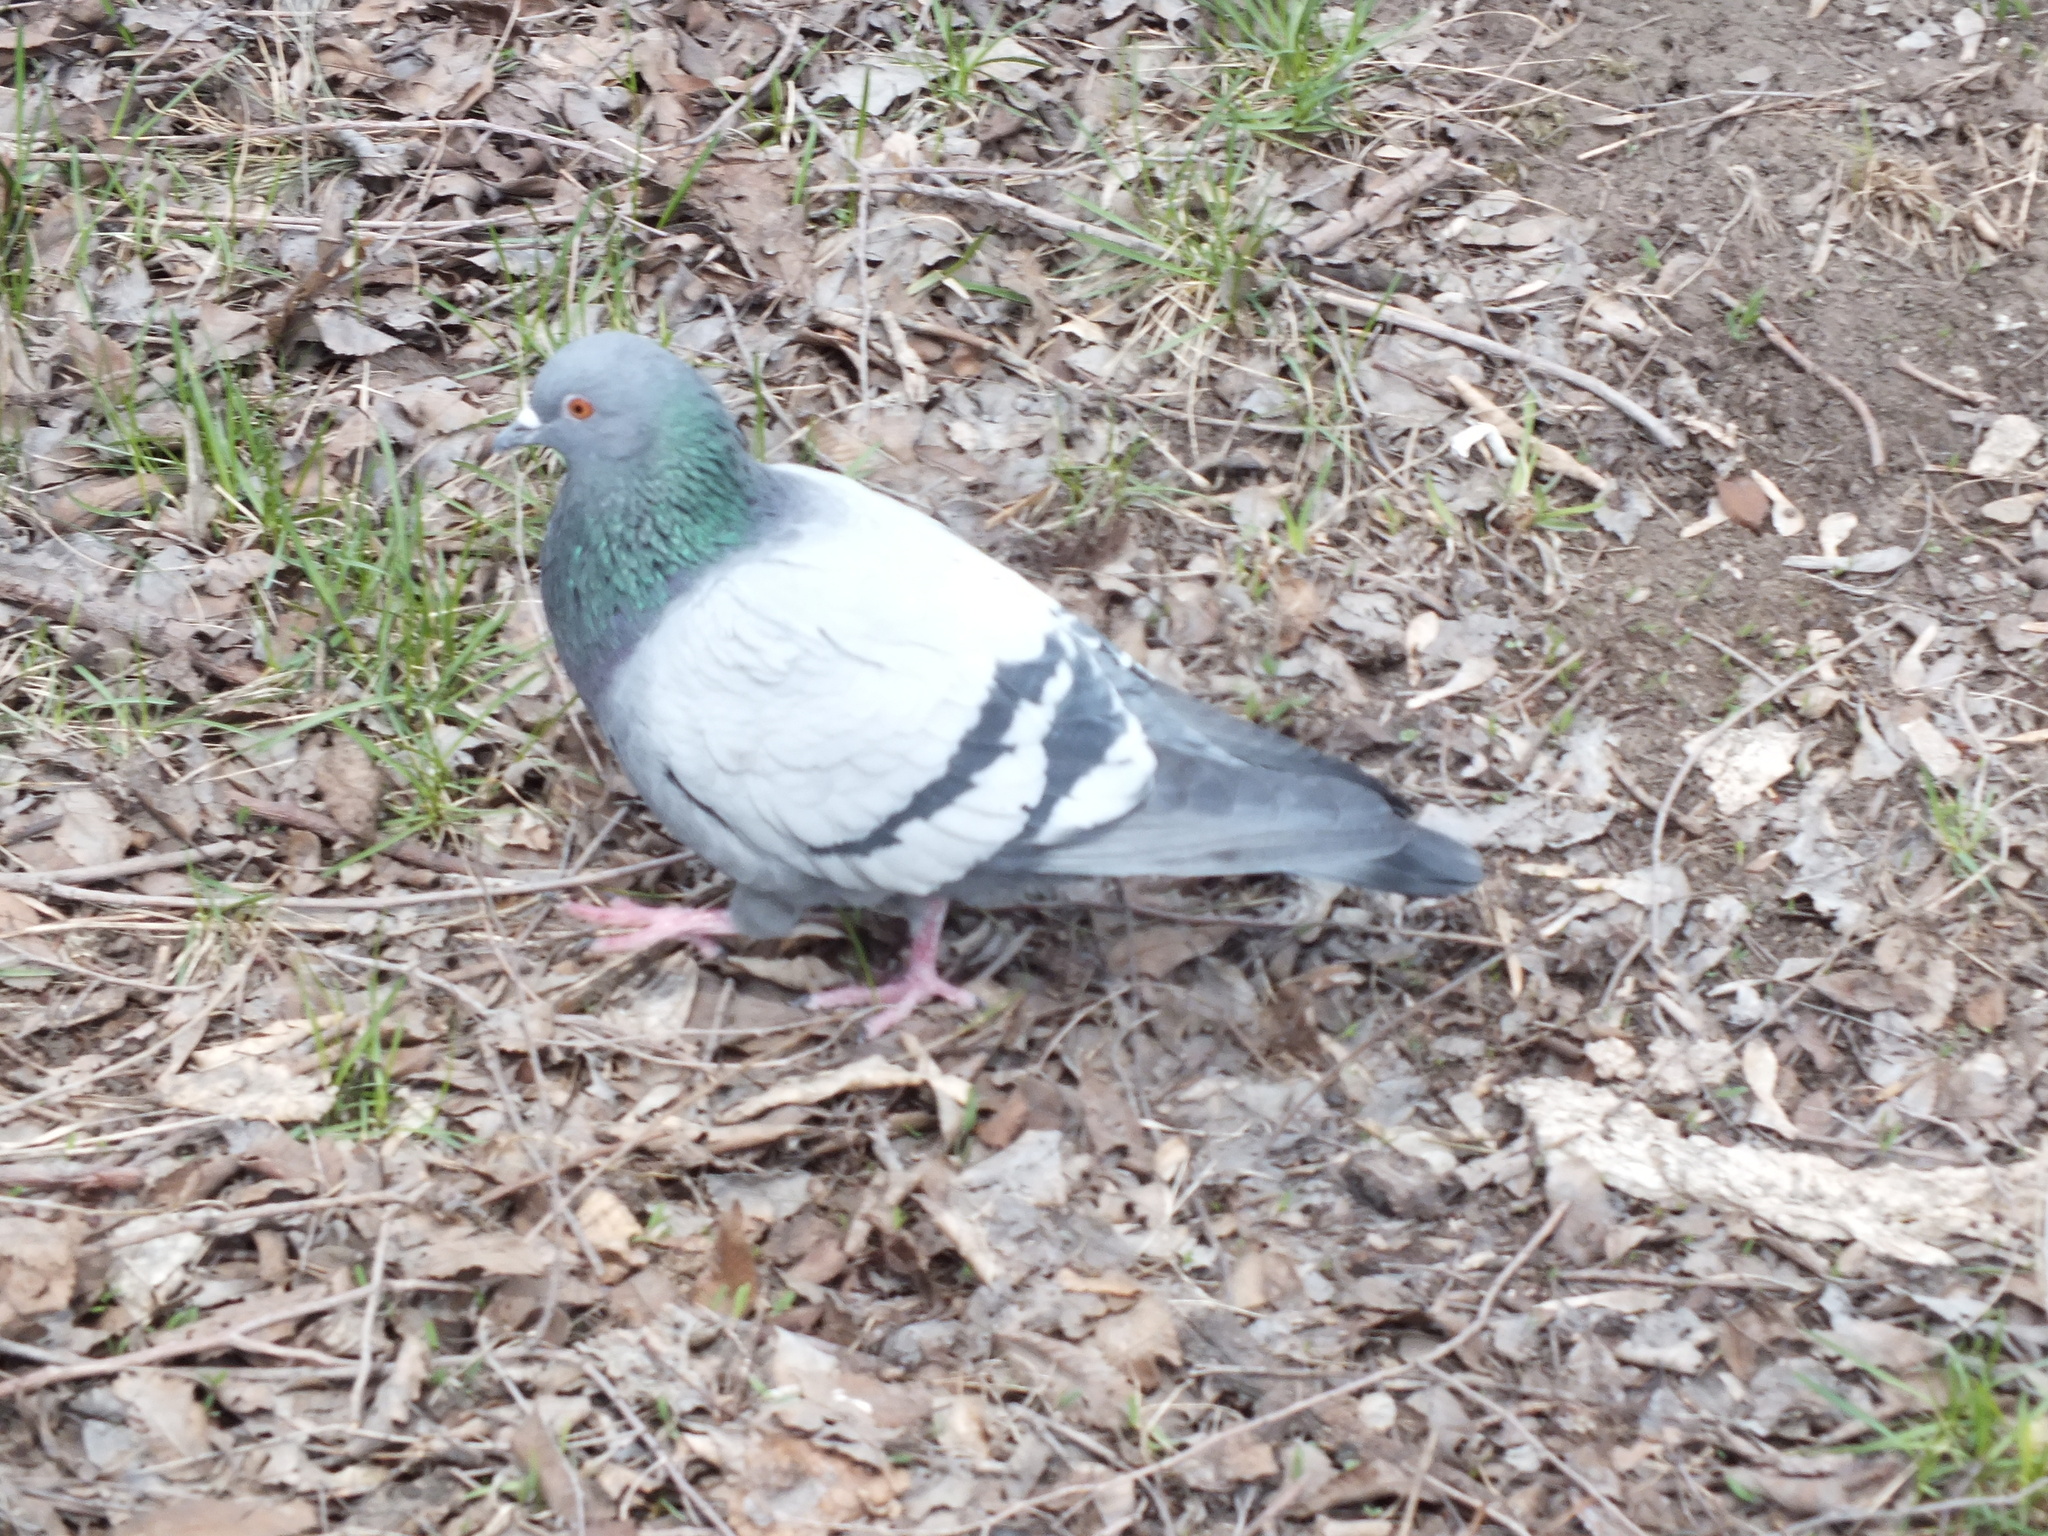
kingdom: Animalia
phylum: Chordata
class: Aves
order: Columbiformes
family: Columbidae
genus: Columba
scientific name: Columba livia
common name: Rock pigeon
